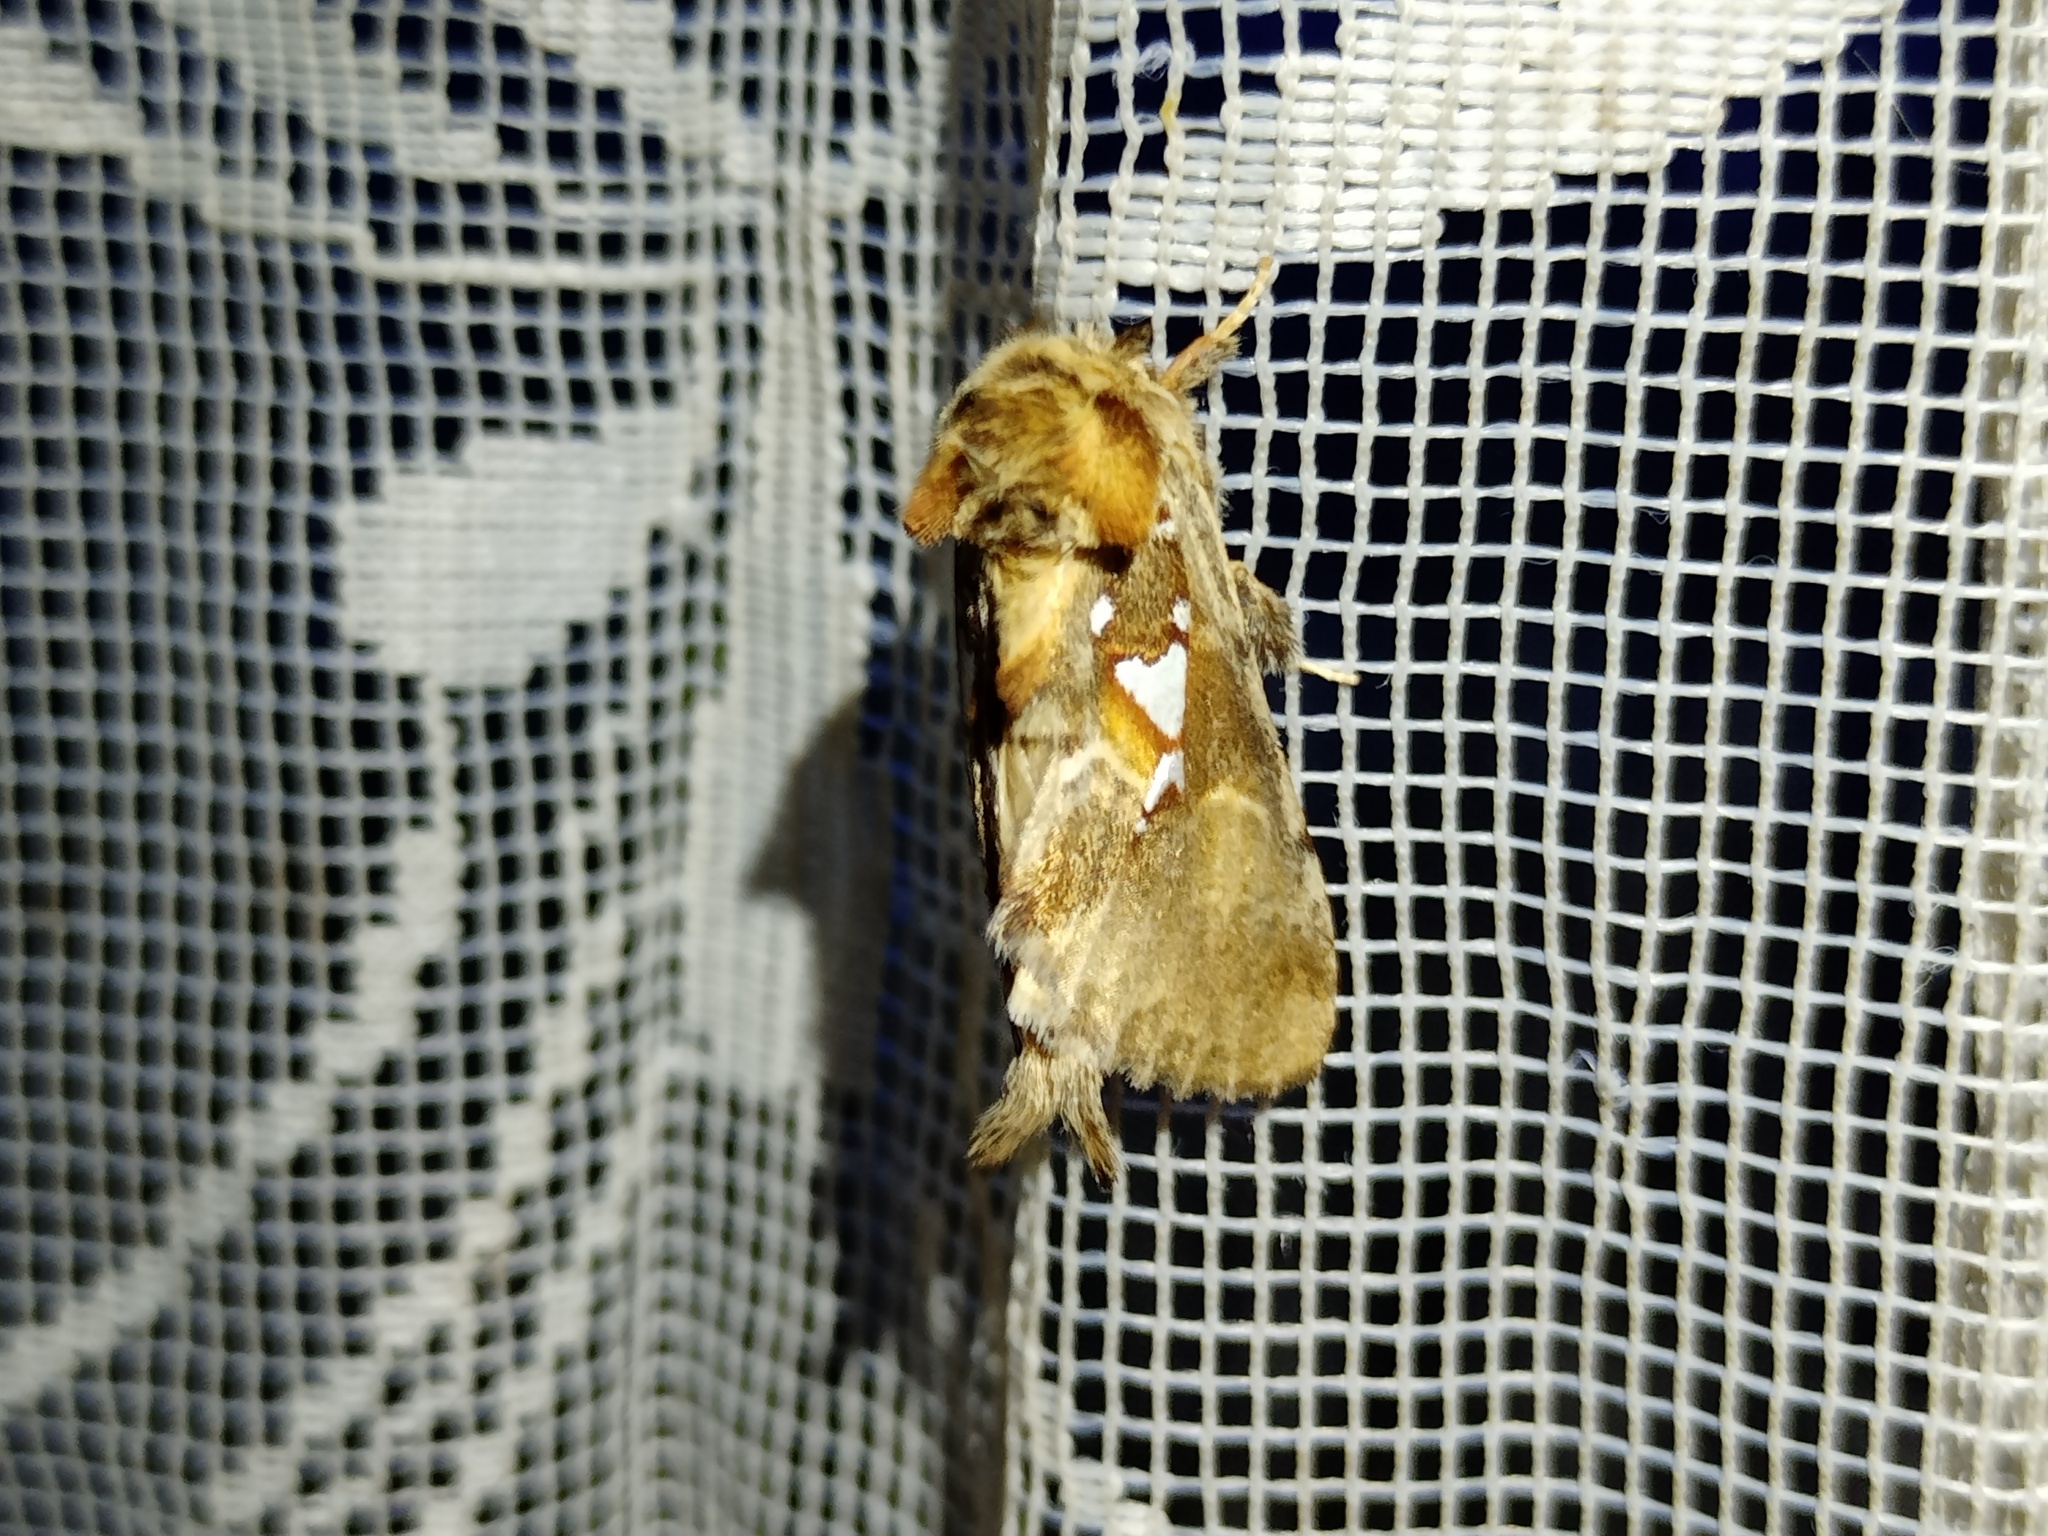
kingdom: Animalia
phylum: Arthropoda
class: Insecta
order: Lepidoptera
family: Notodontidae
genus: Spatalia
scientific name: Spatalia argentina
